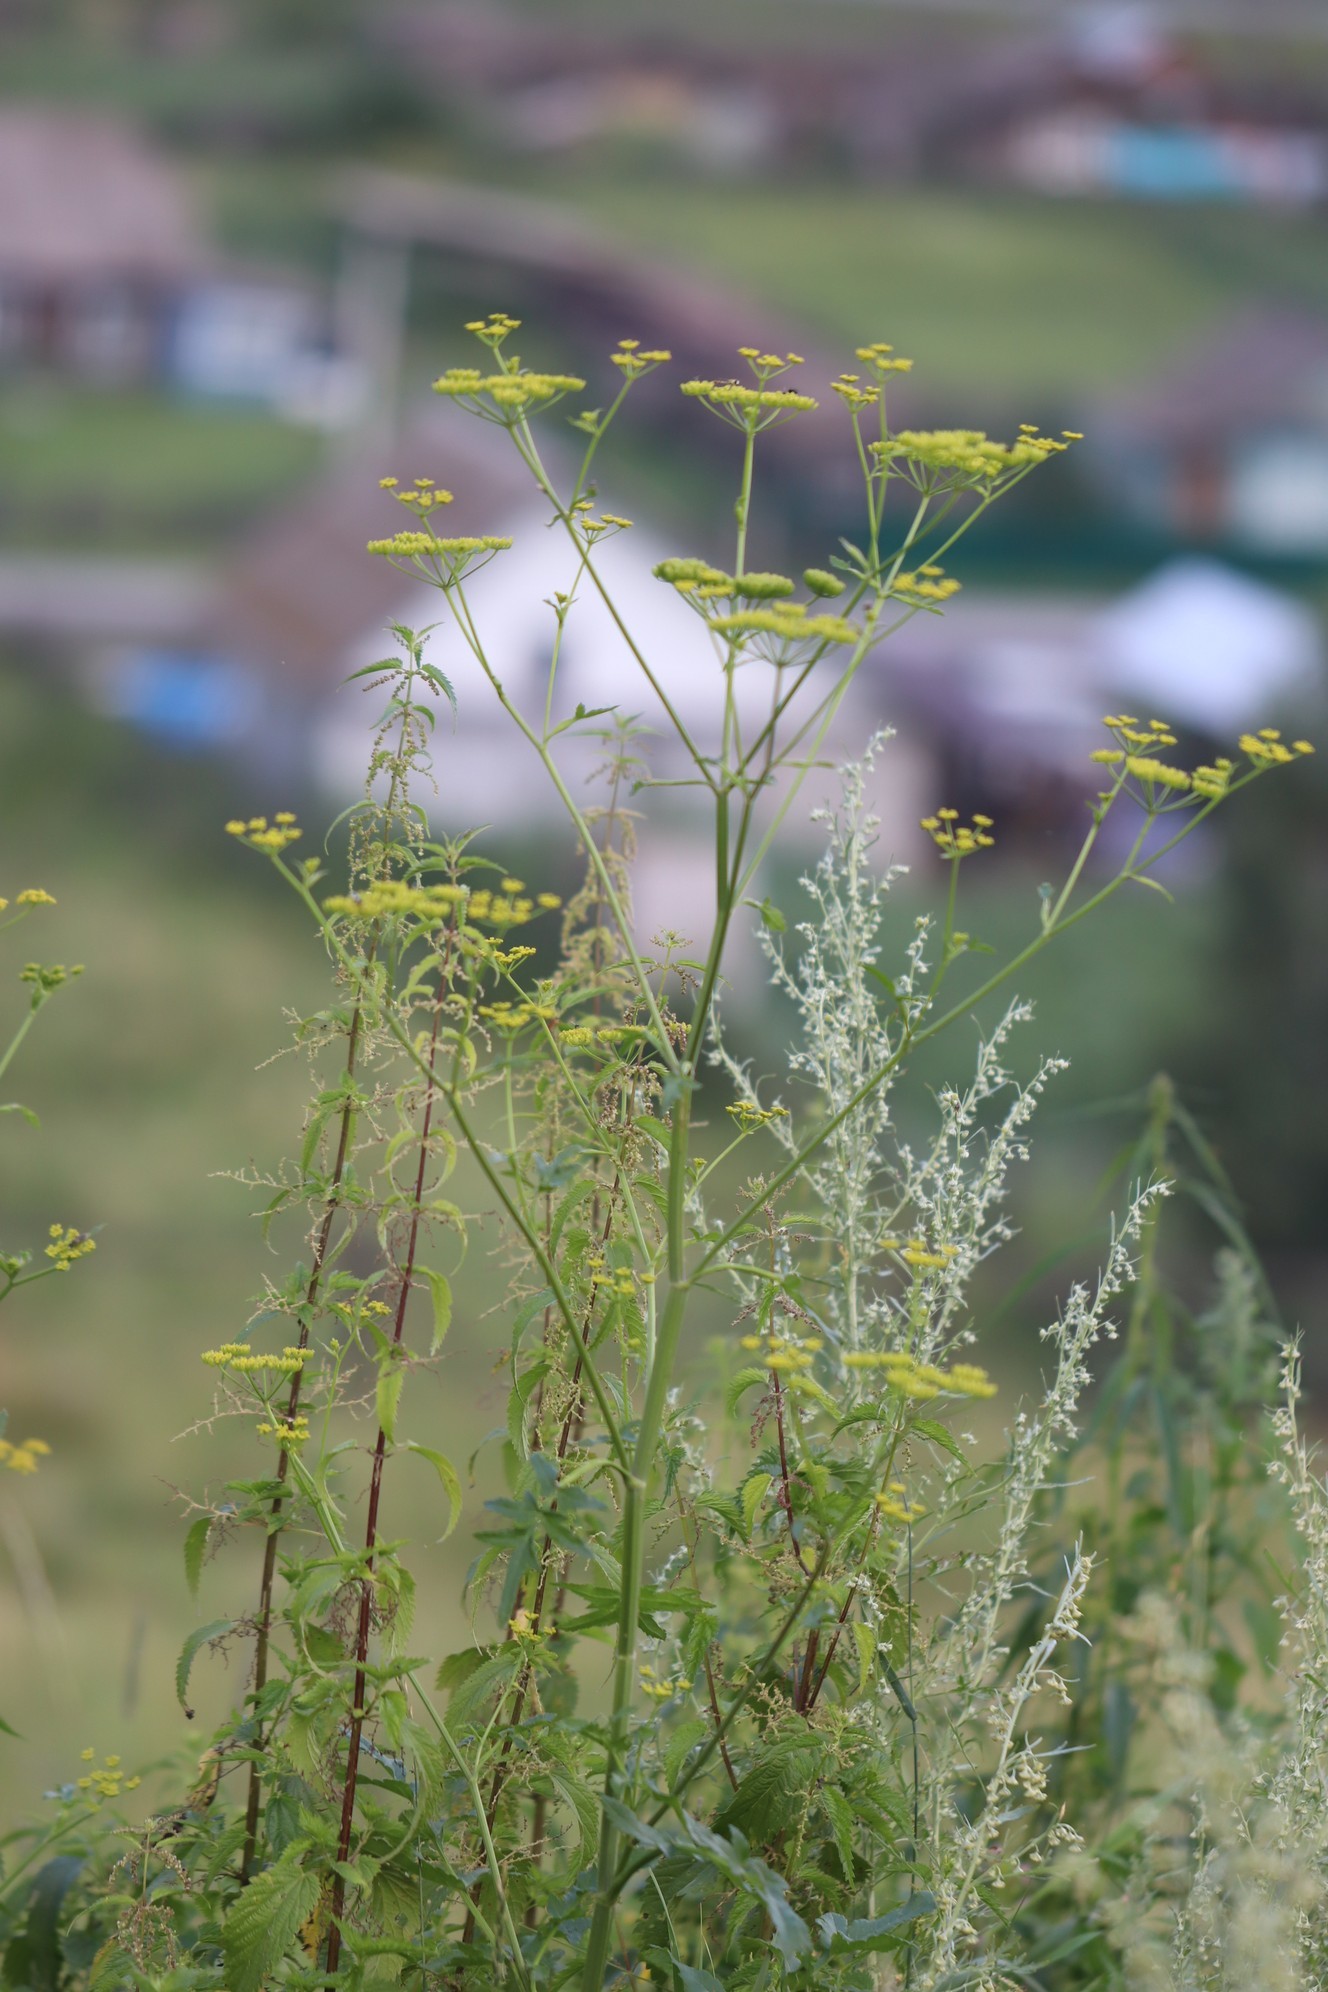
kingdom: Plantae
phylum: Tracheophyta
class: Magnoliopsida
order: Apiales
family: Apiaceae
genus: Pastinaca
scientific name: Pastinaca sativa
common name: Wild parsnip
